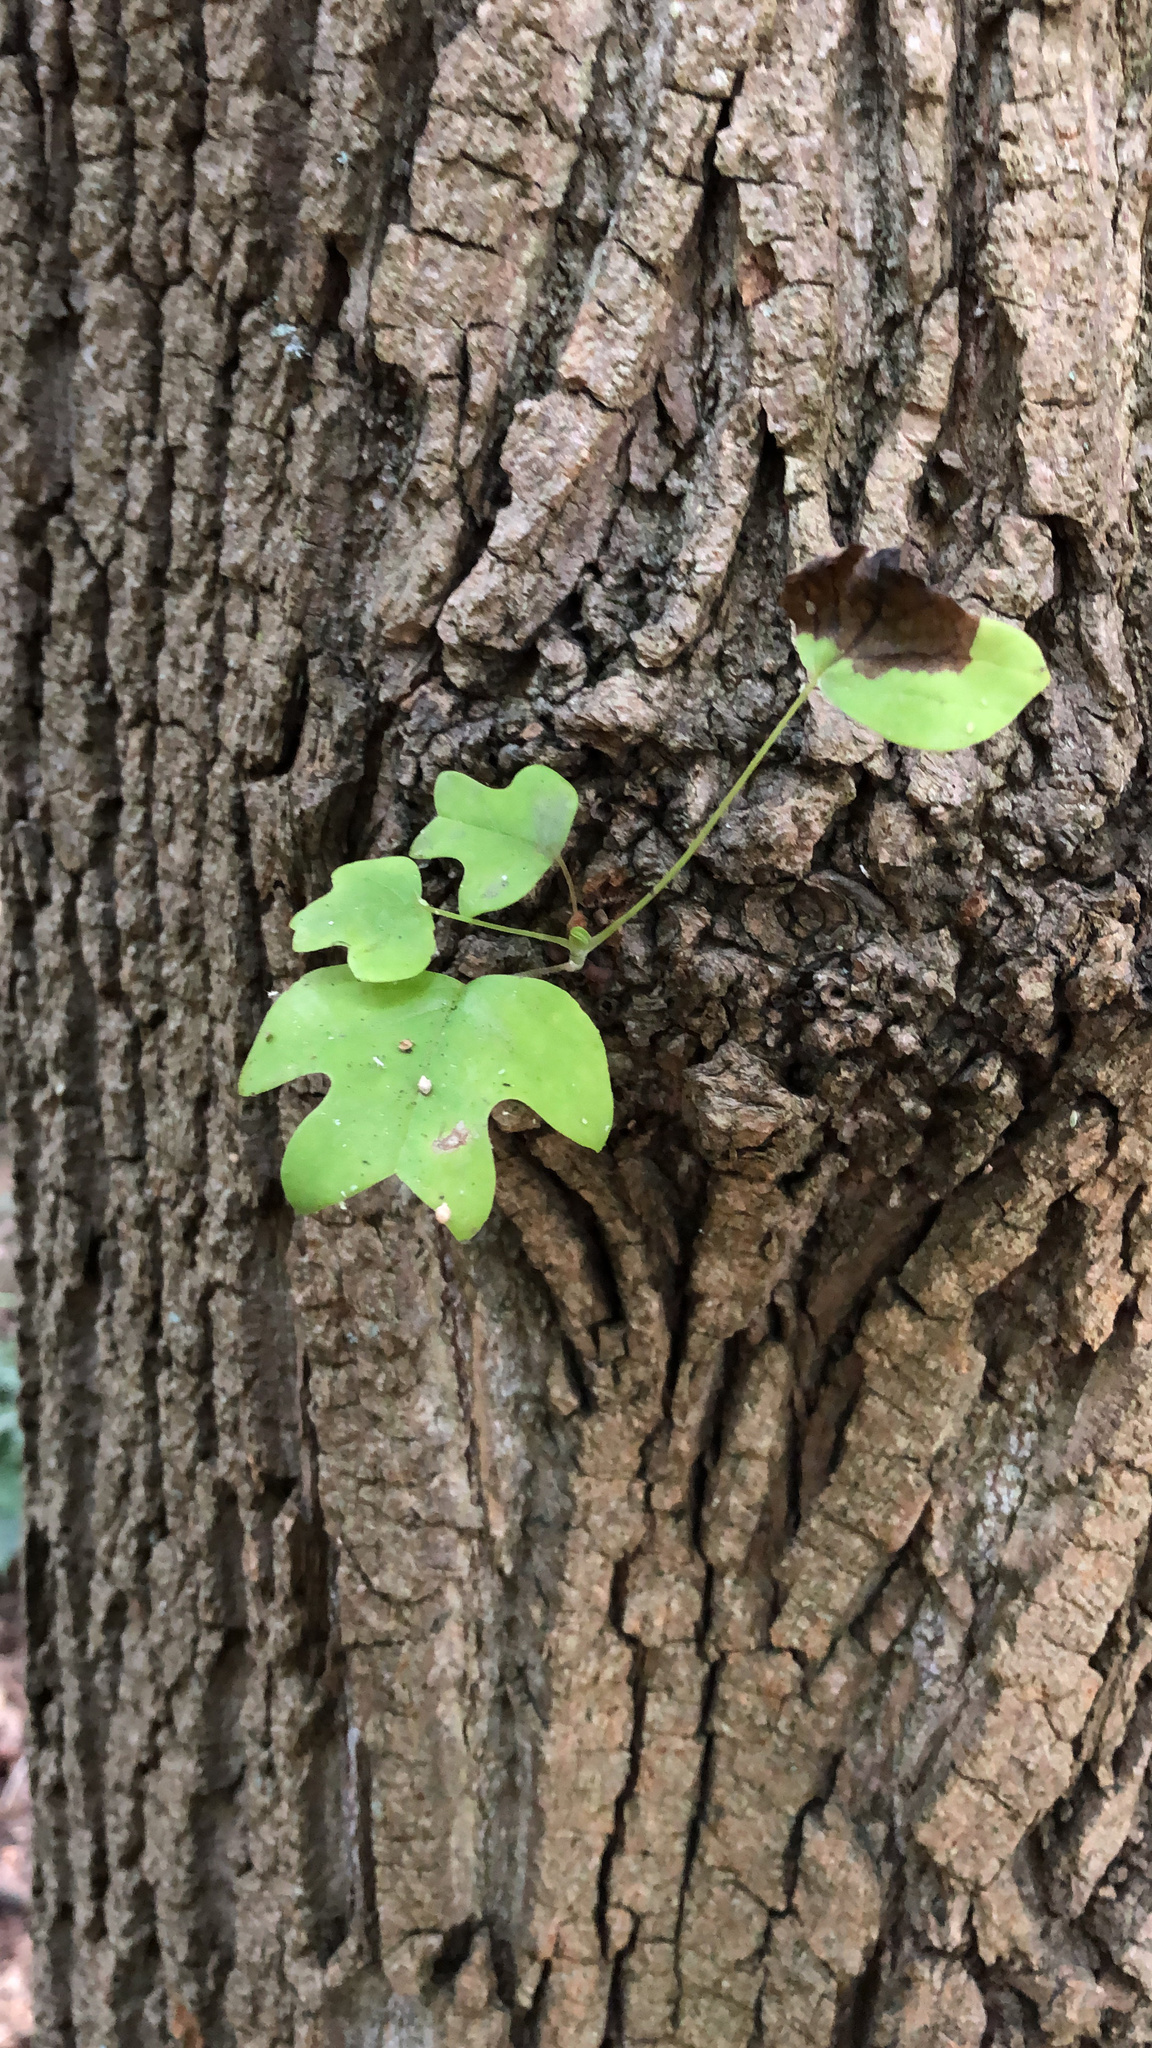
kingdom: Plantae
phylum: Tracheophyta
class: Magnoliopsida
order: Magnoliales
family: Magnoliaceae
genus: Liriodendron
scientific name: Liriodendron tulipifera
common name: Tulip tree
